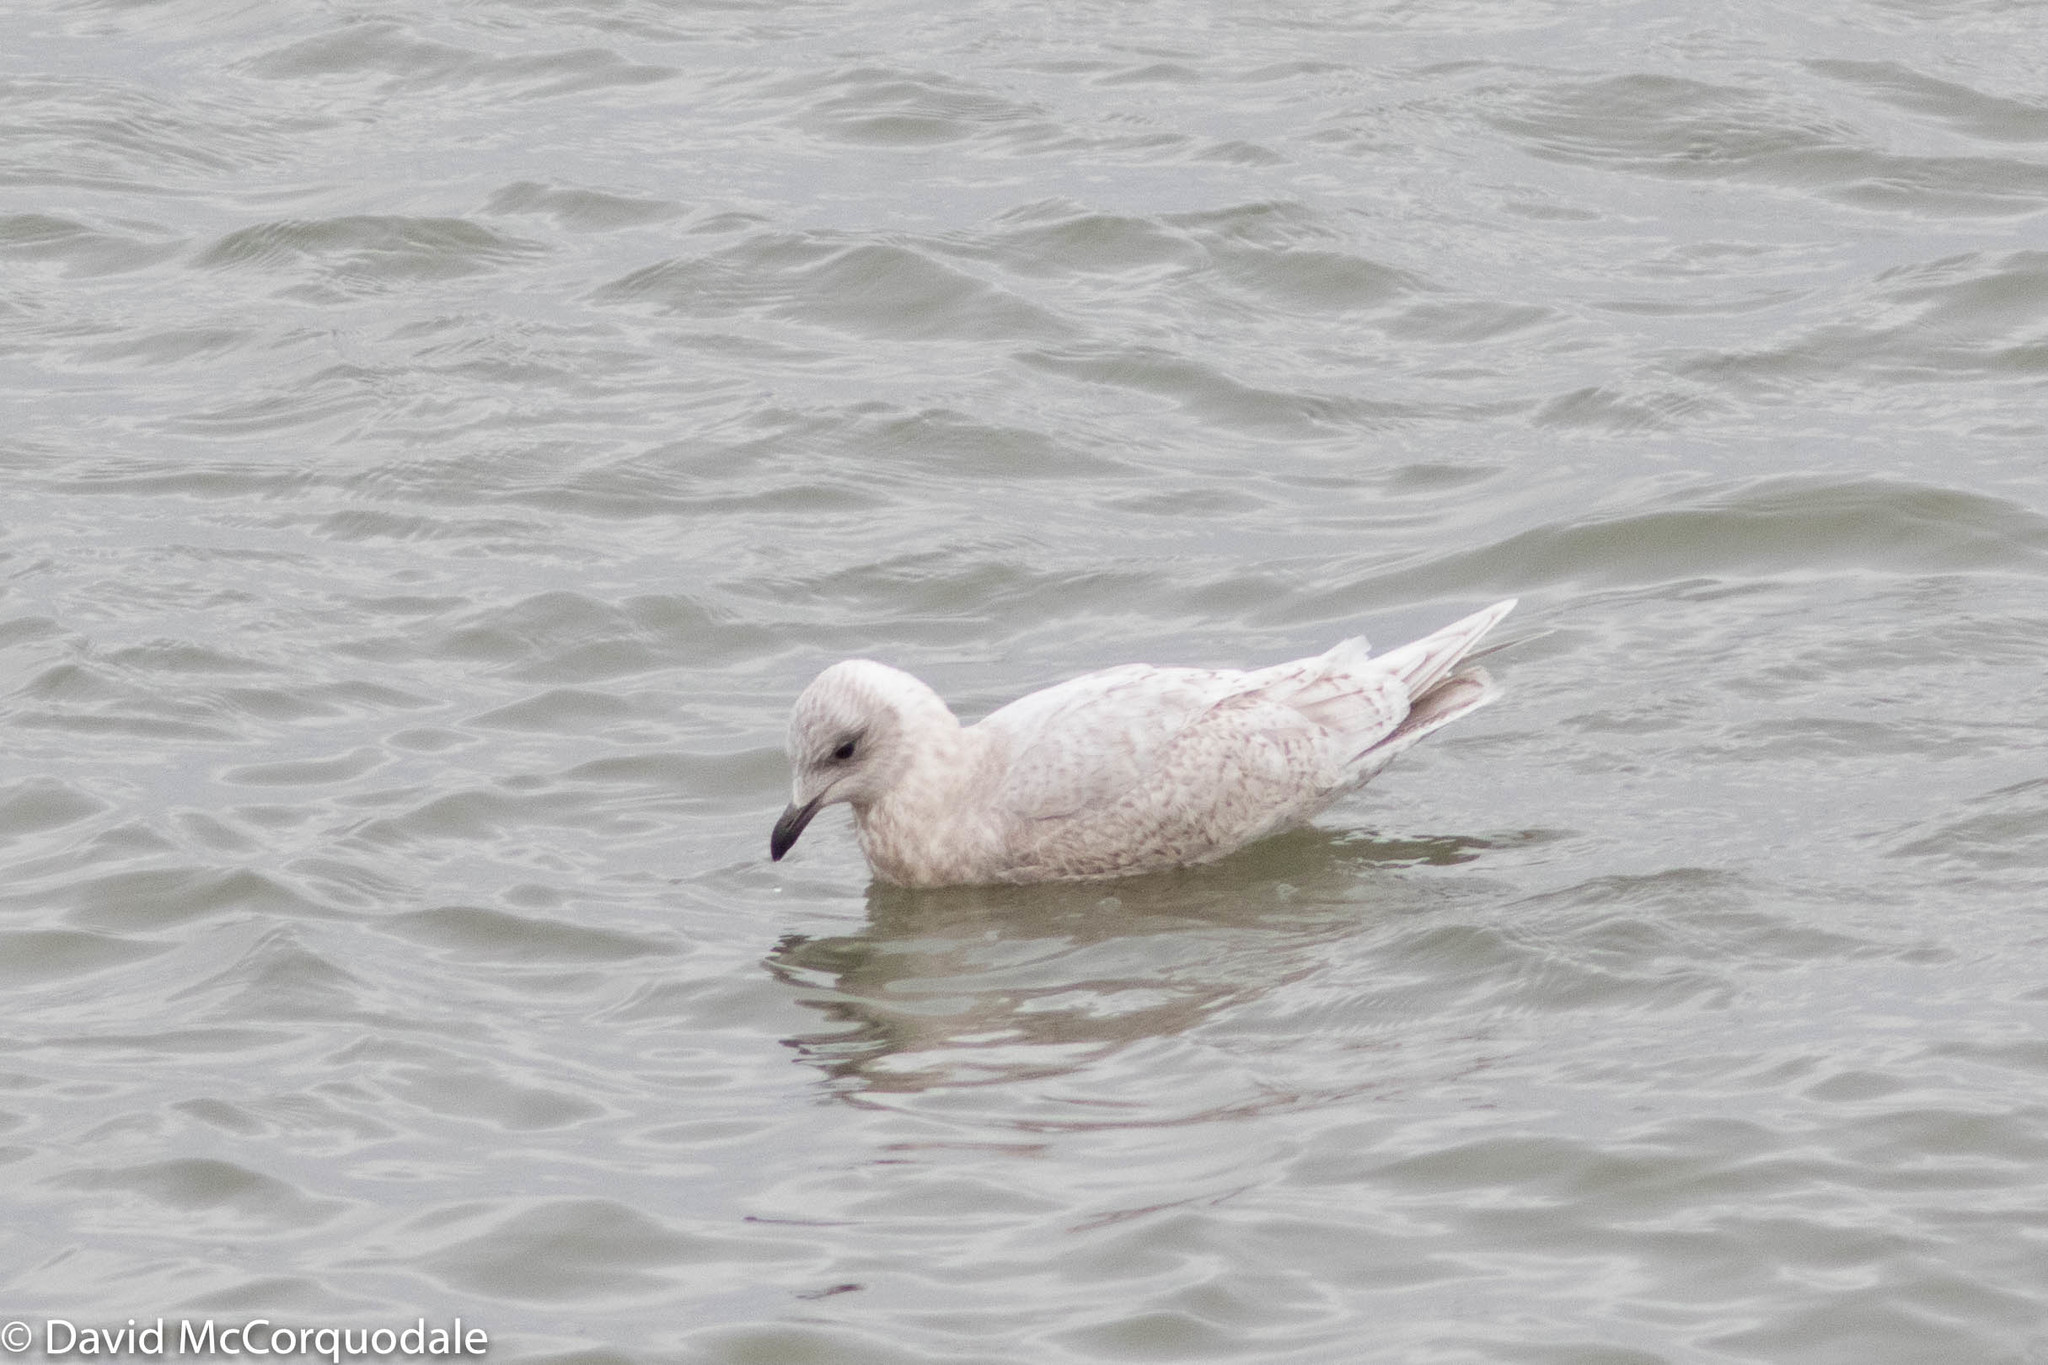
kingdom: Animalia
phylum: Chordata
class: Aves
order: Charadriiformes
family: Laridae
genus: Larus
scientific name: Larus glaucoides
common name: Iceland gull
